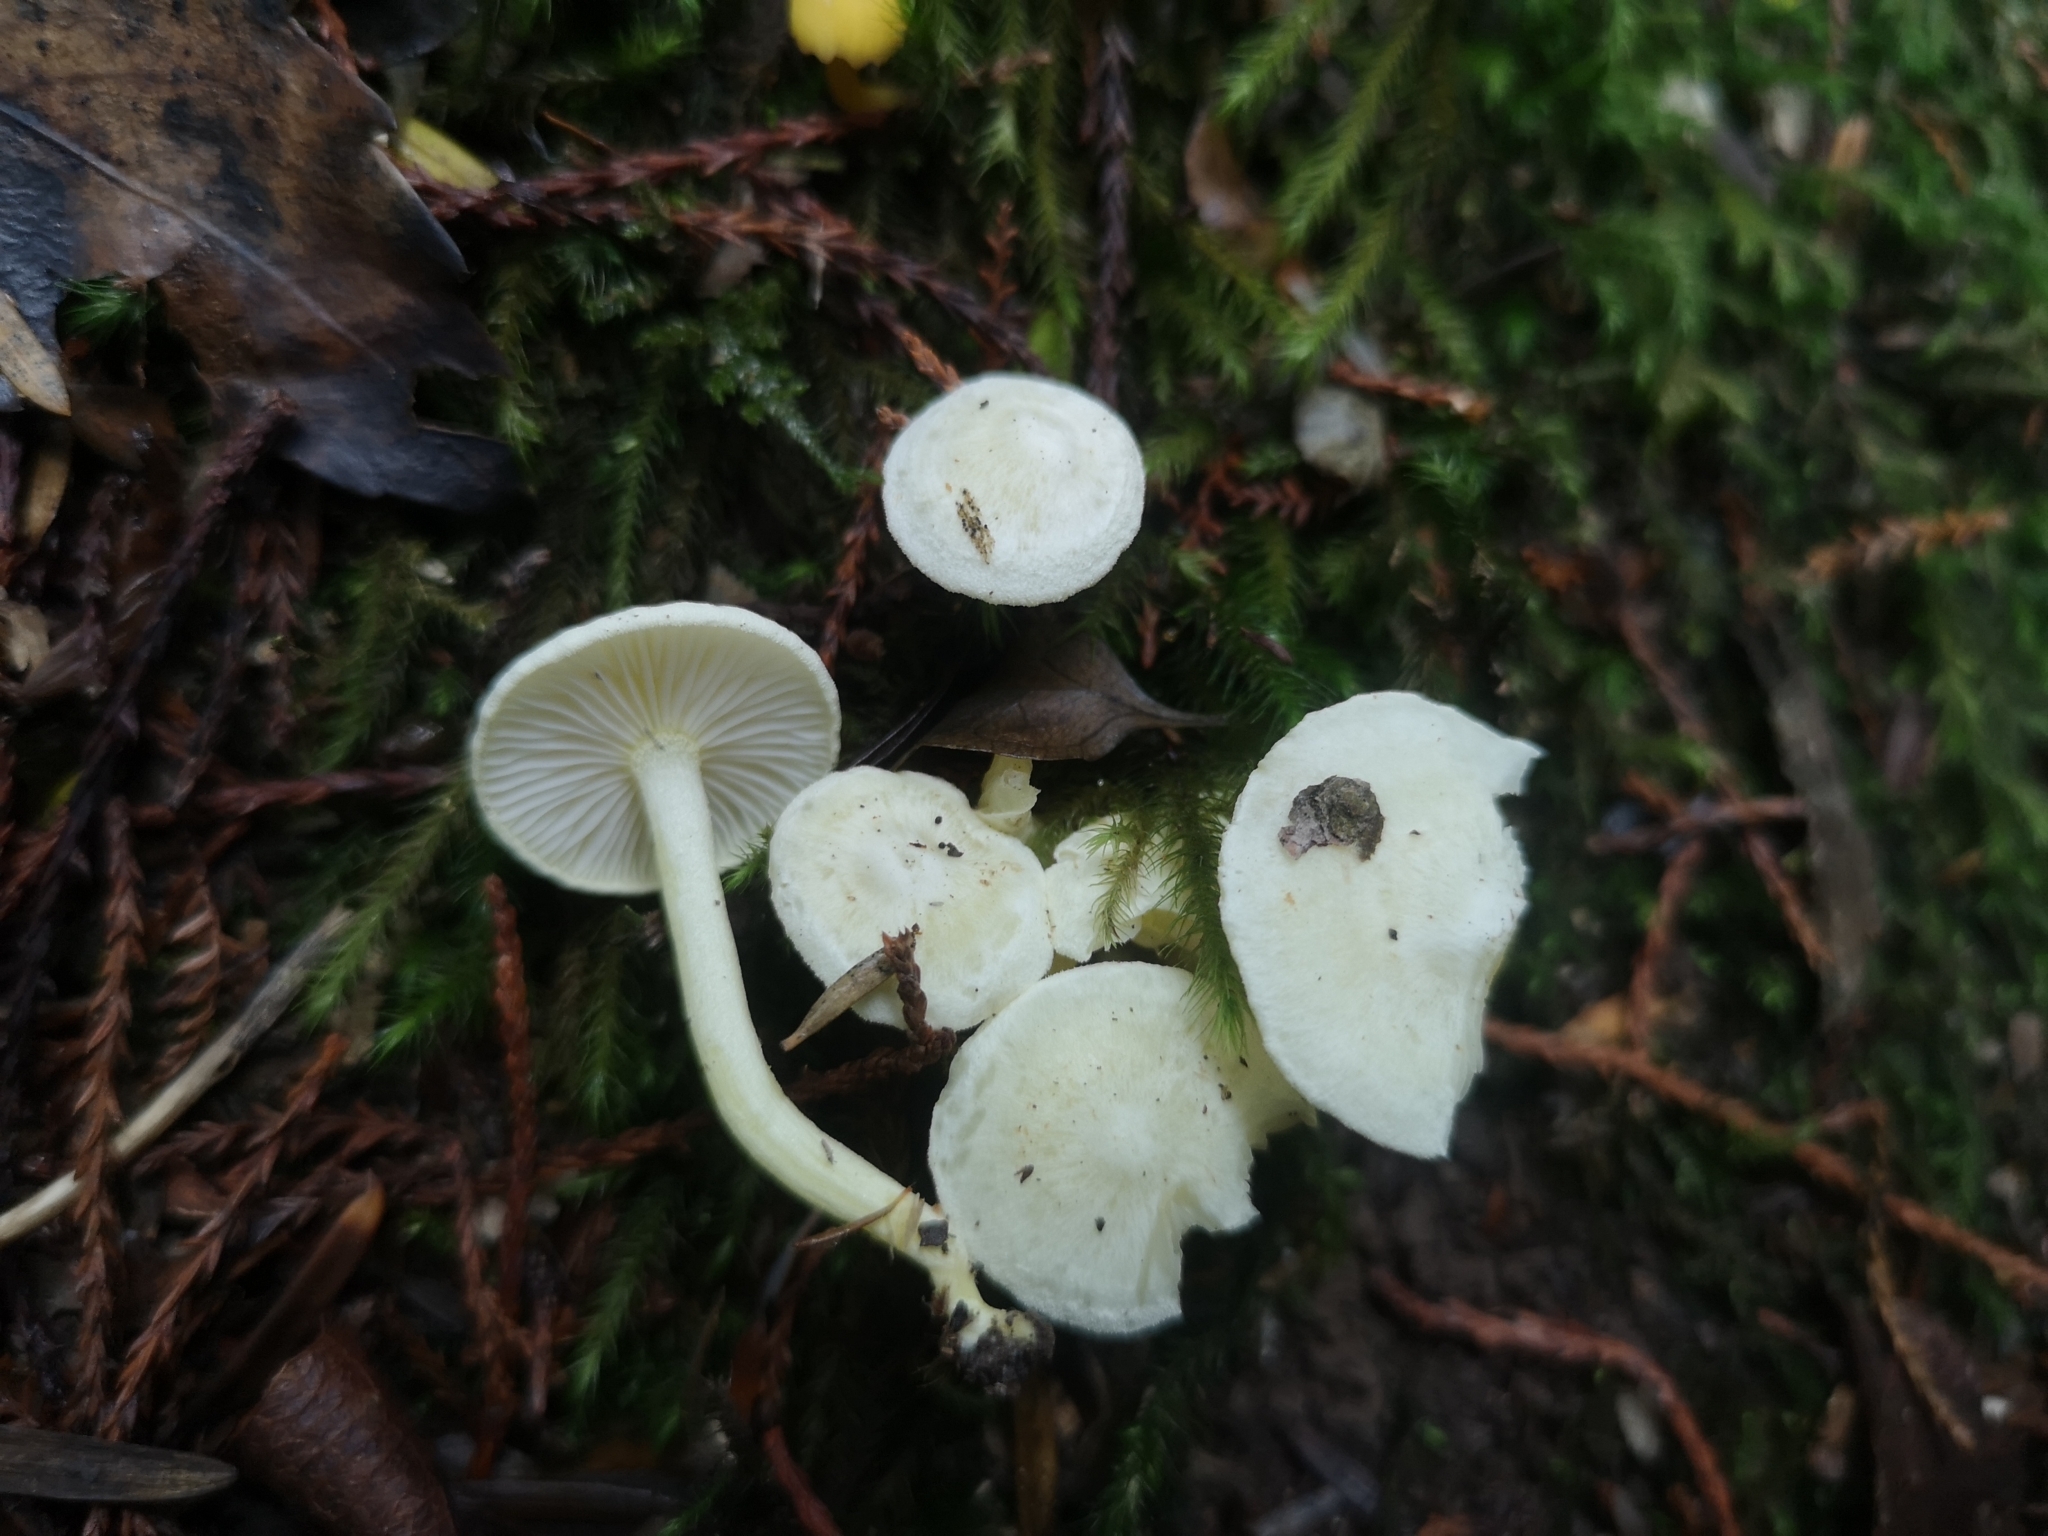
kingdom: Fungi
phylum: Basidiomycota
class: Agaricomycetes
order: Agaricales
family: Hygrophoraceae
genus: Hygrophorus
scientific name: Hygrophorus involutus
